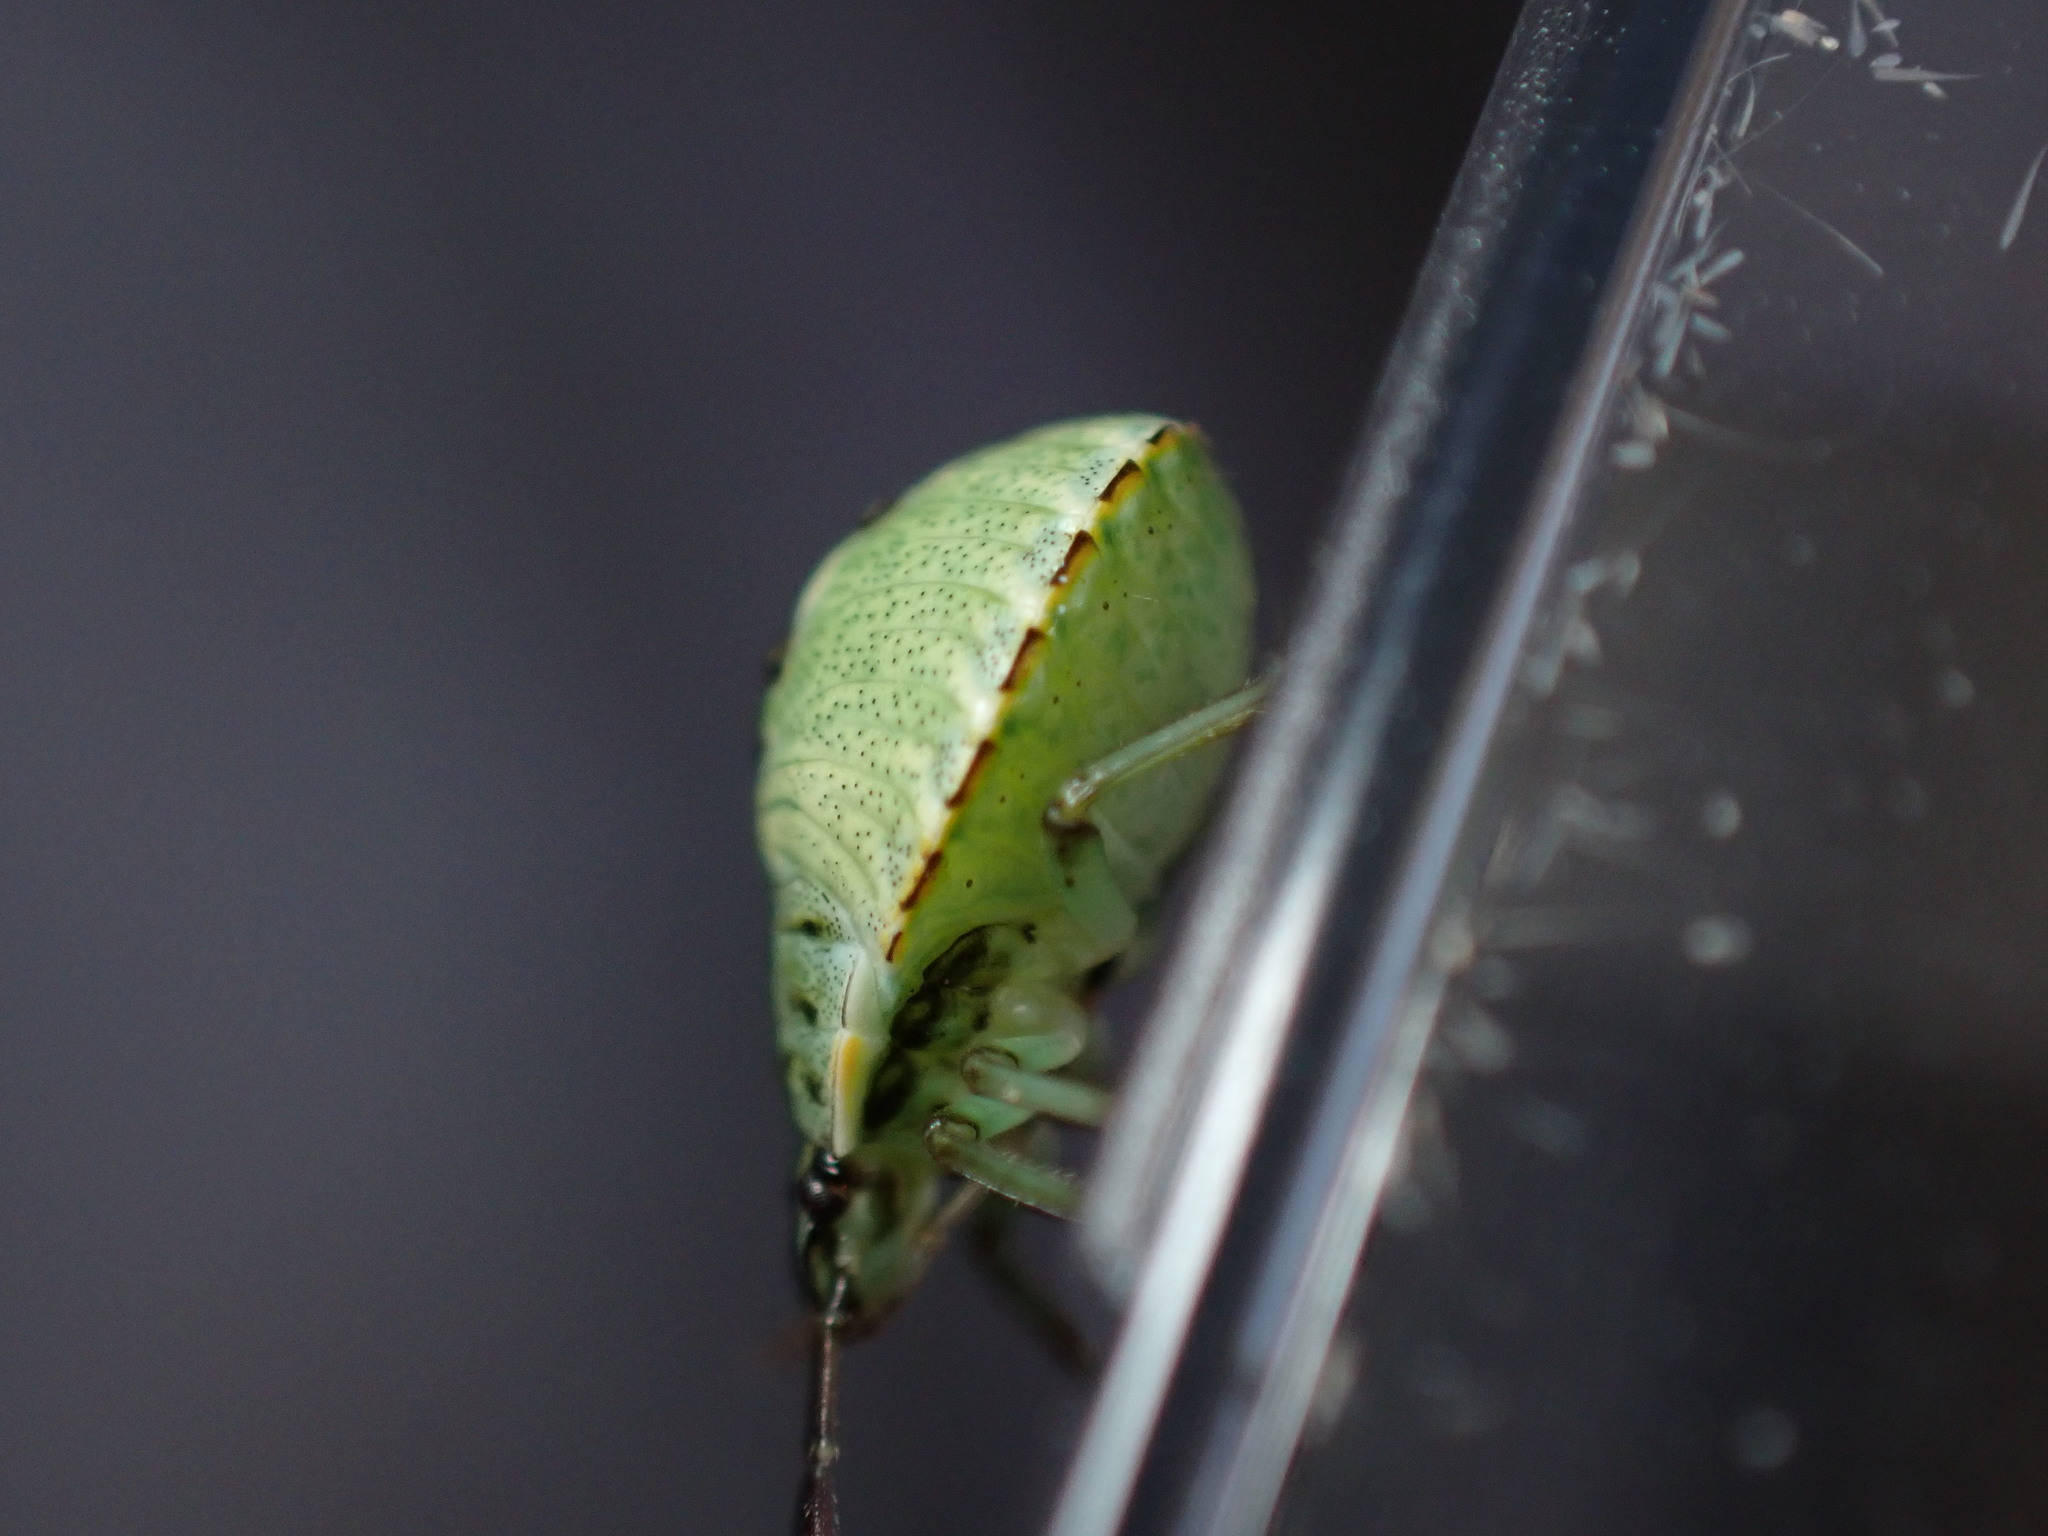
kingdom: Animalia
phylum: Arthropoda
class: Insecta
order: Hemiptera
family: Pentatomidae
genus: Palomena
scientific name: Palomena prasina
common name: Green shieldbug
